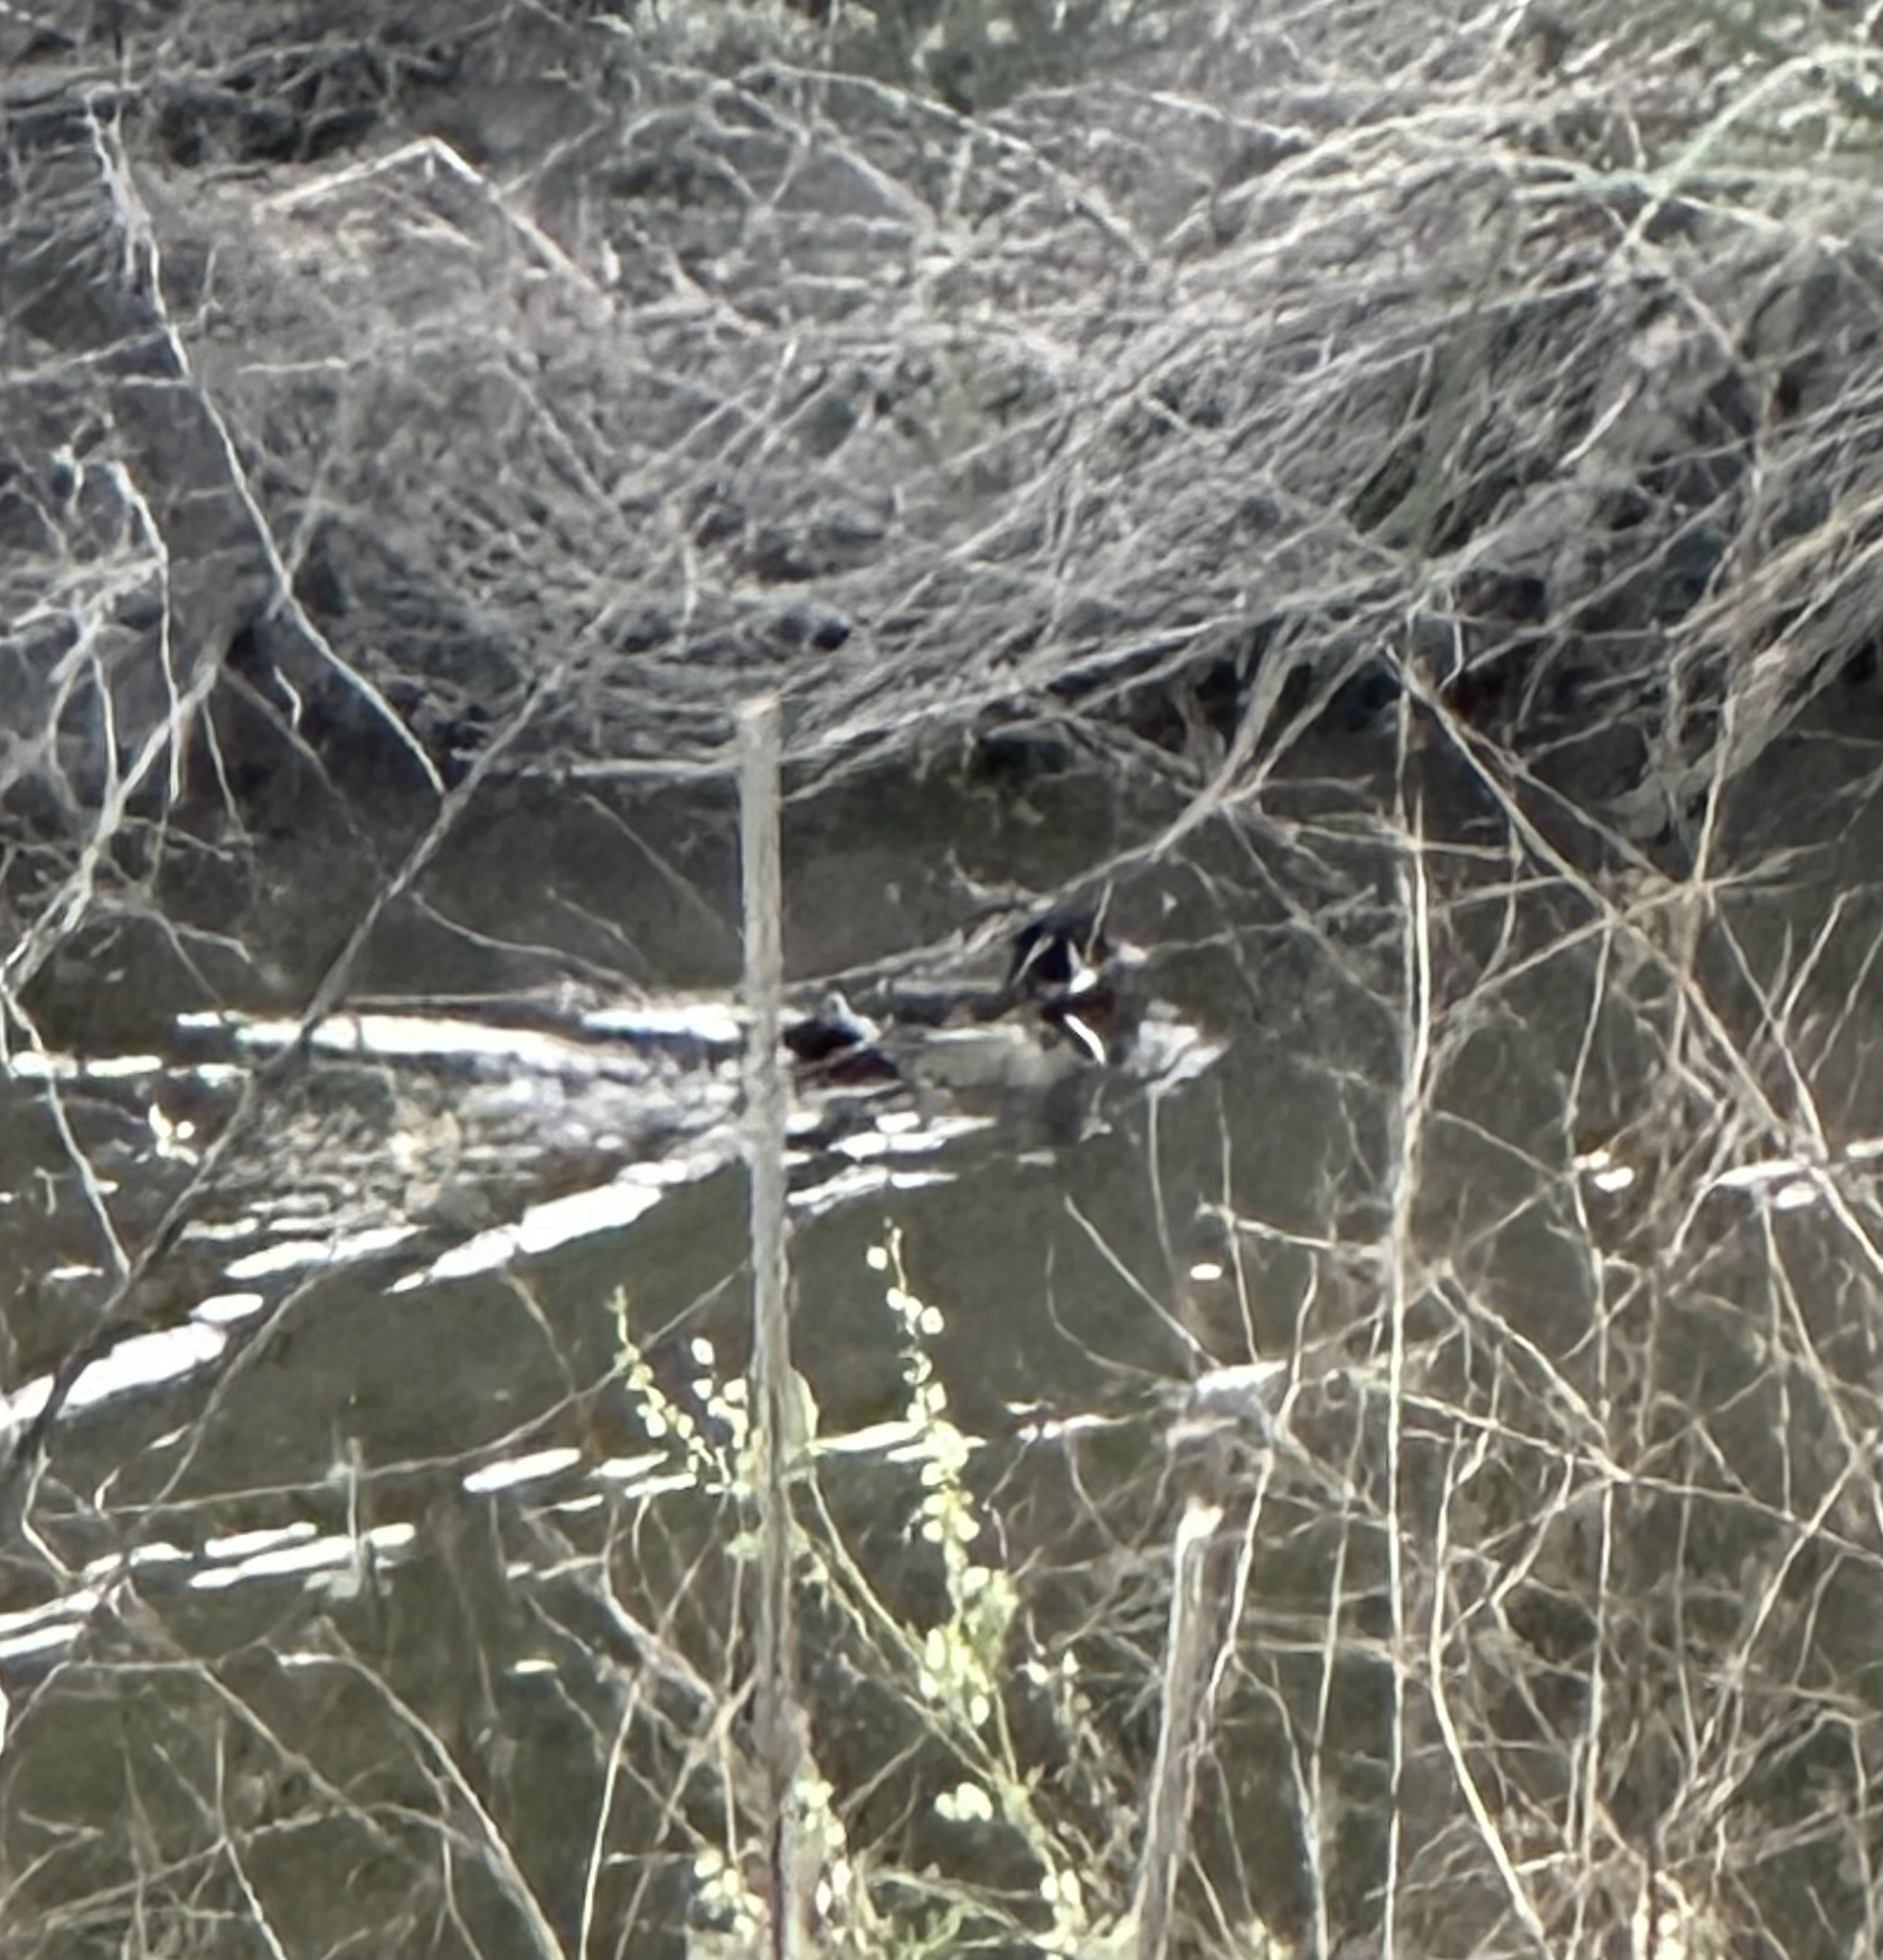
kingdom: Animalia
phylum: Chordata
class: Aves
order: Anseriformes
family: Anatidae
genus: Aix
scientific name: Aix sponsa
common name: Wood duck
